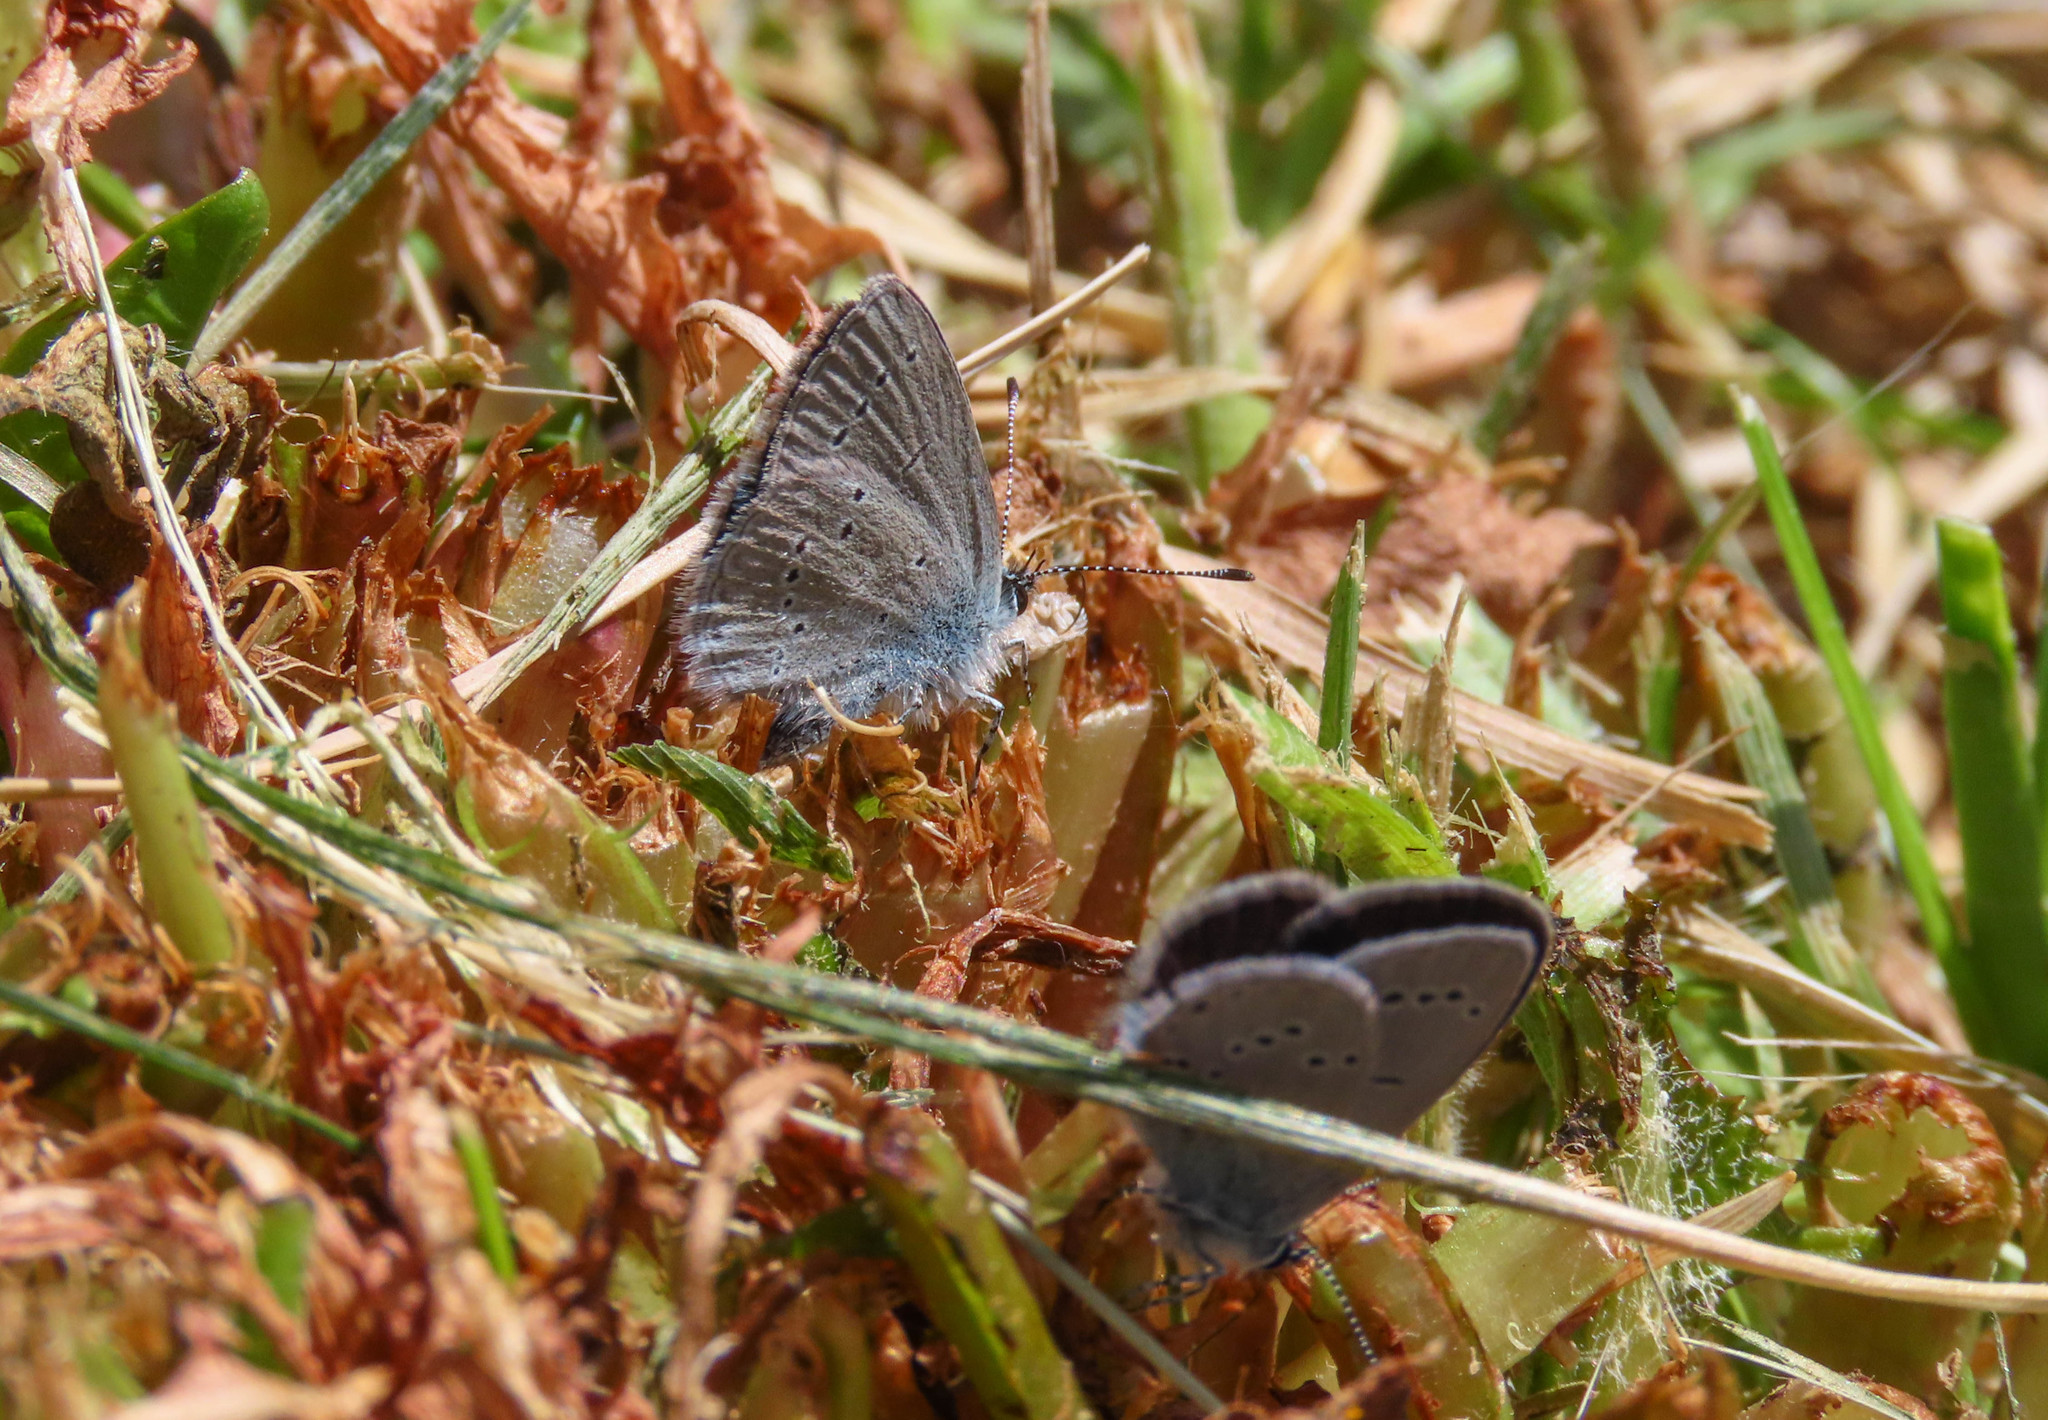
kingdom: Animalia
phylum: Arthropoda
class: Insecta
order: Lepidoptera
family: Lycaenidae
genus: Cupido
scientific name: Cupido minimus
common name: Small blue
